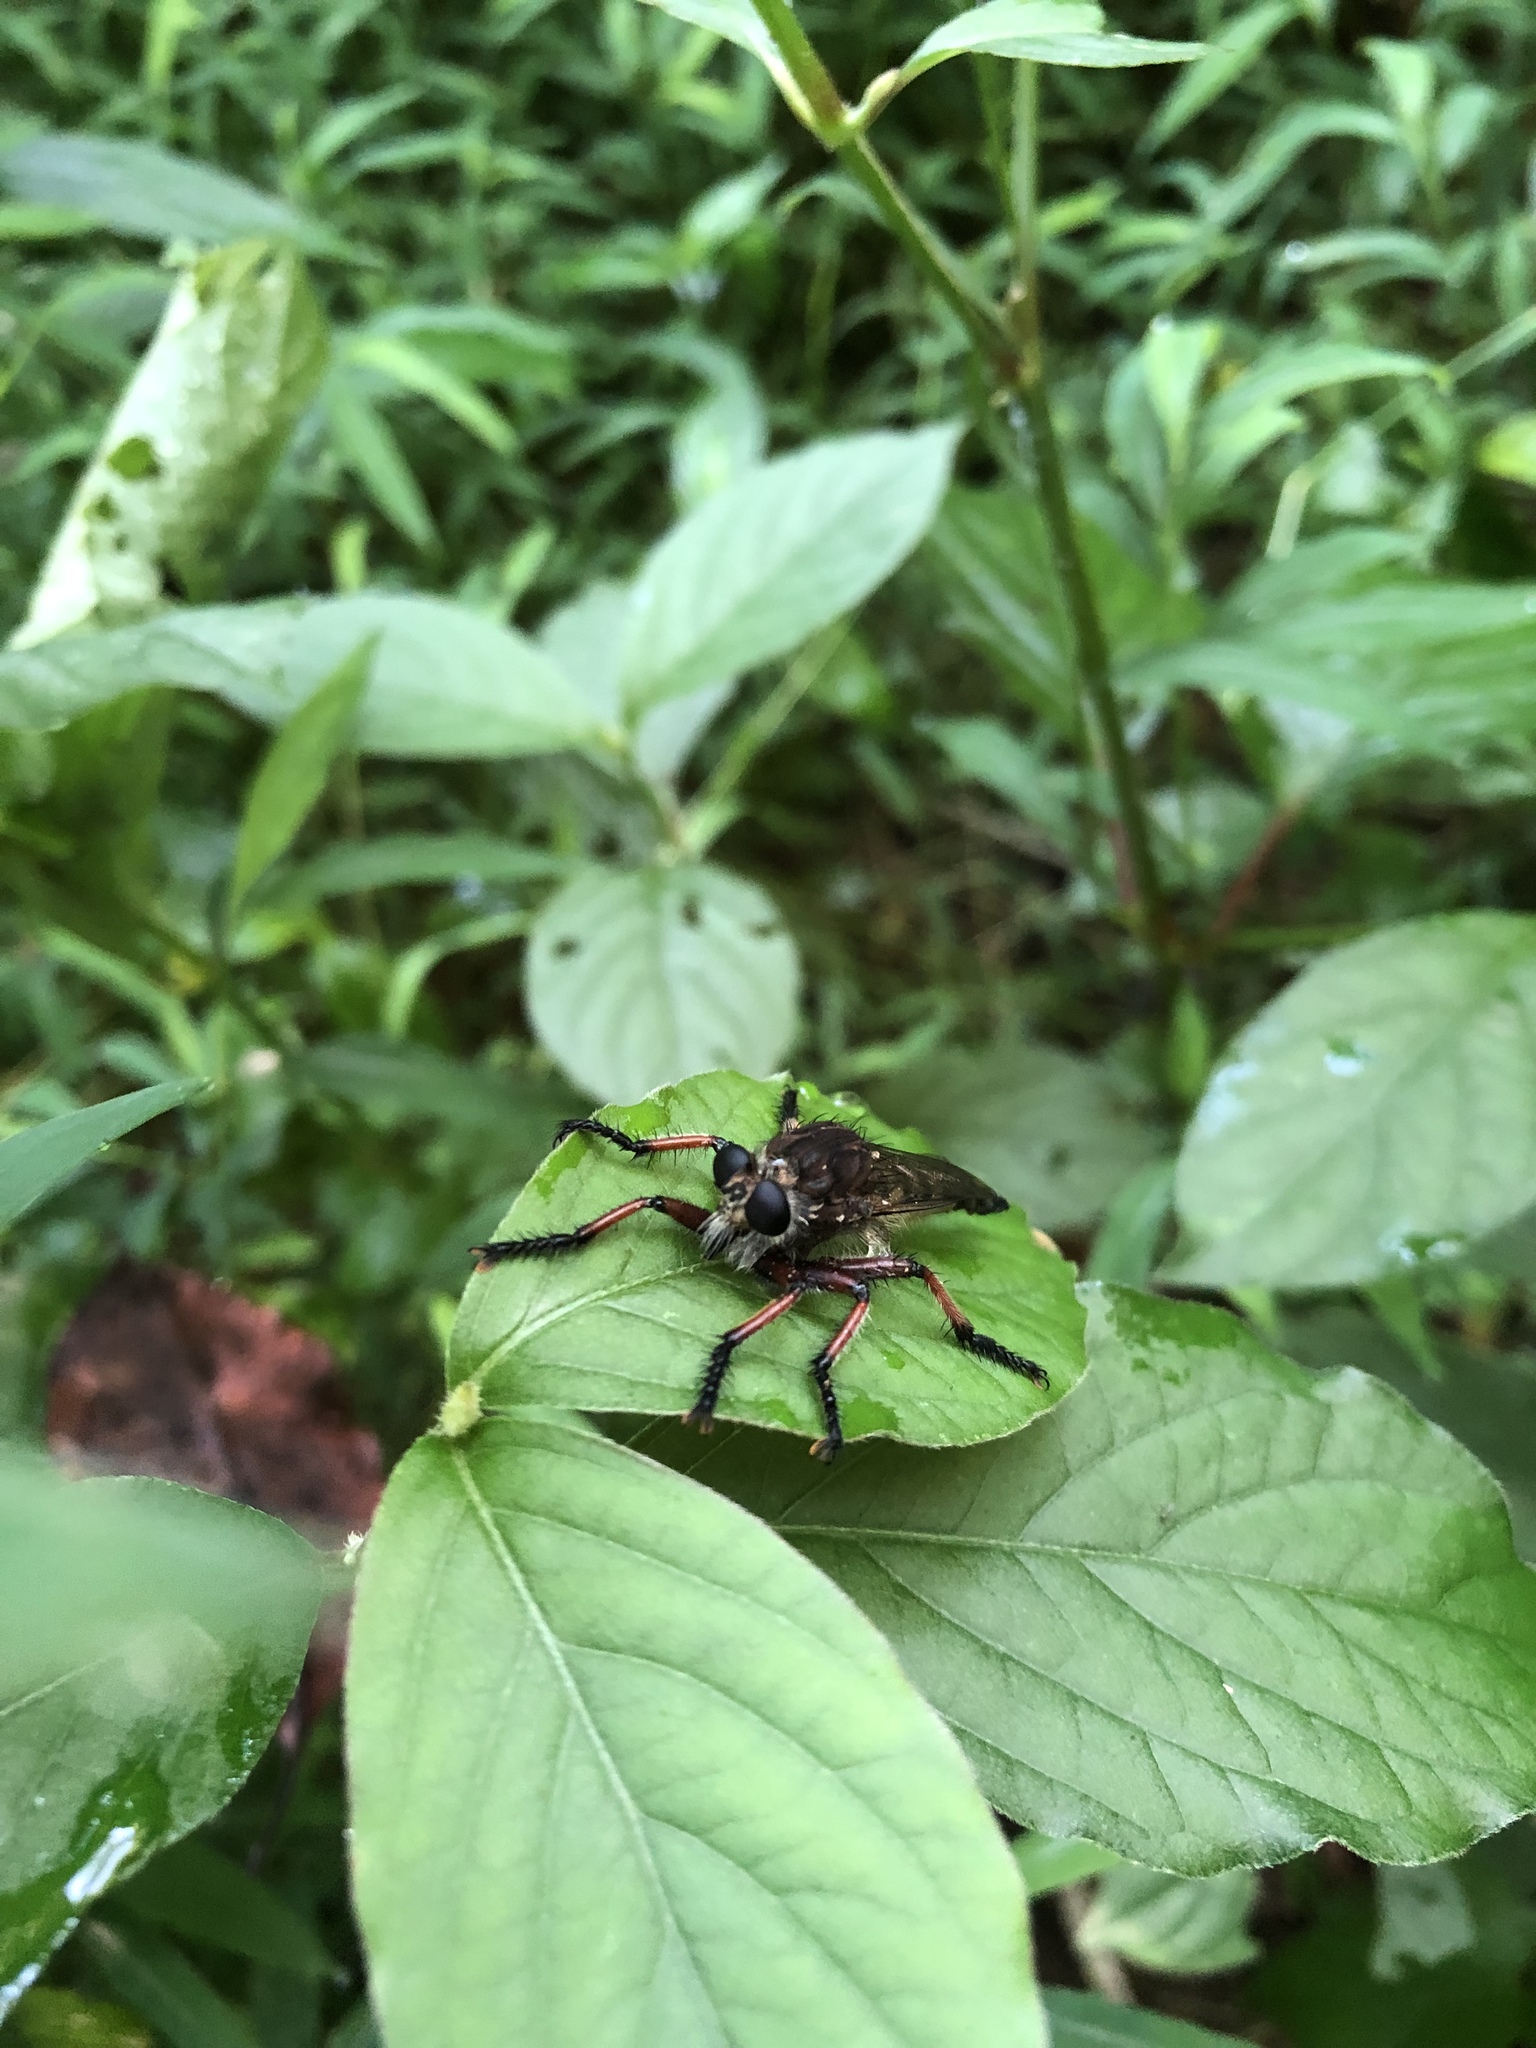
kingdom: Animalia
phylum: Arthropoda
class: Insecta
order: Diptera
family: Asilidae
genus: Promachus
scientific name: Promachus hinei
